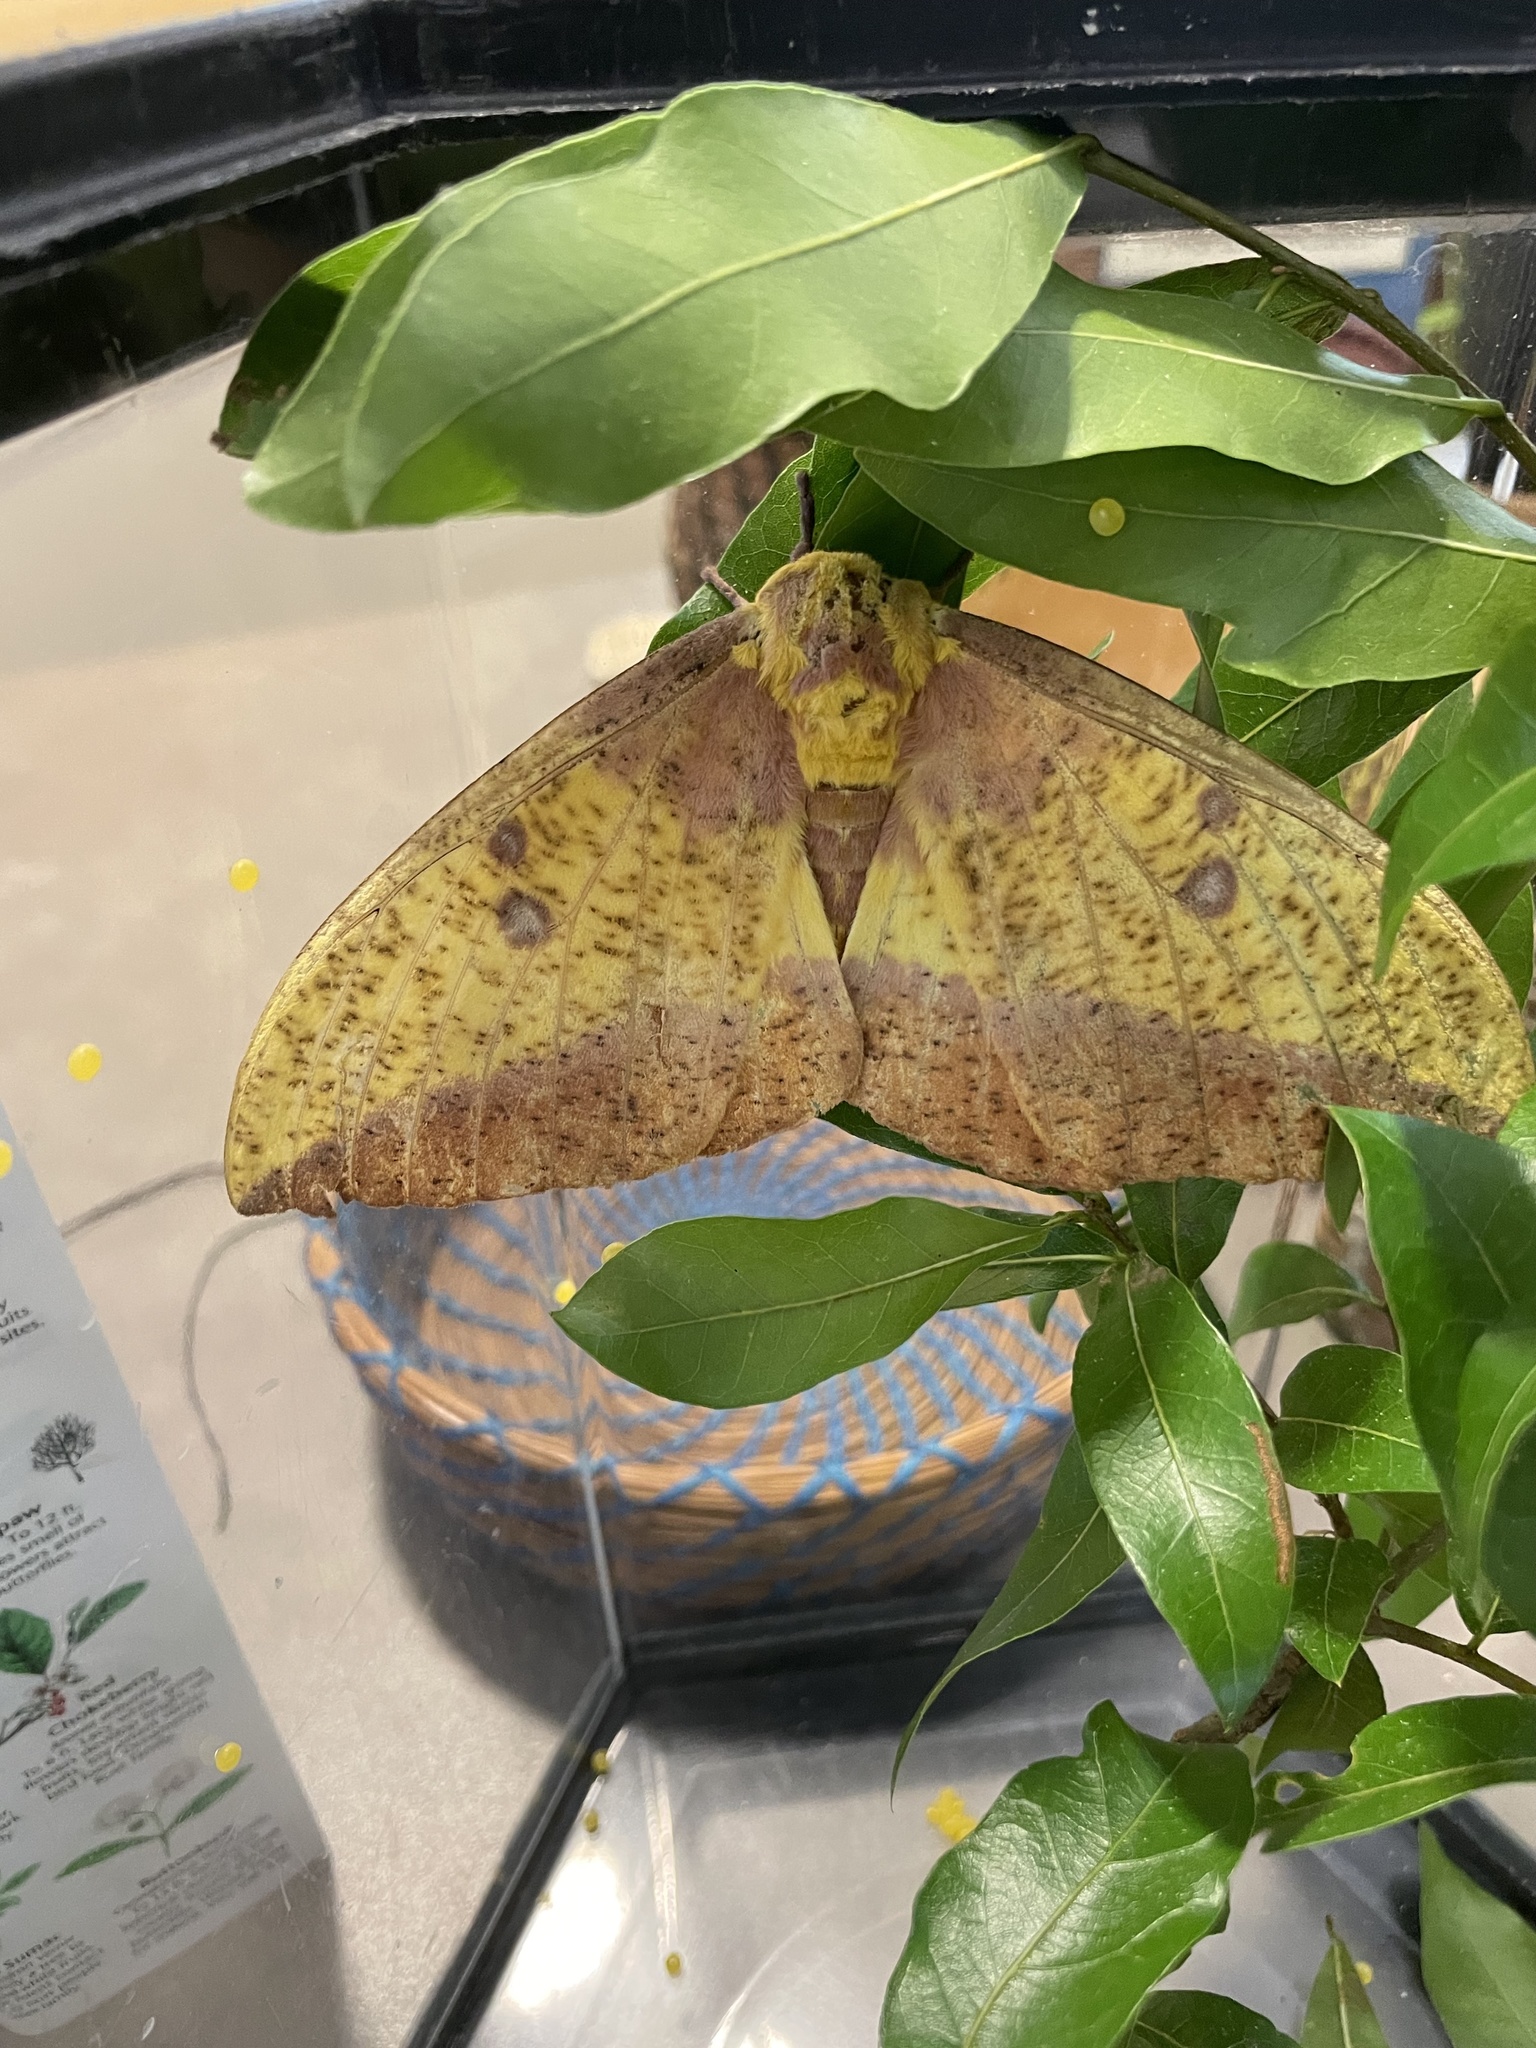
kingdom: Animalia
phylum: Arthropoda
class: Insecta
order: Lepidoptera
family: Saturniidae
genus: Eacles
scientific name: Eacles imperialis
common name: Imperial moth
